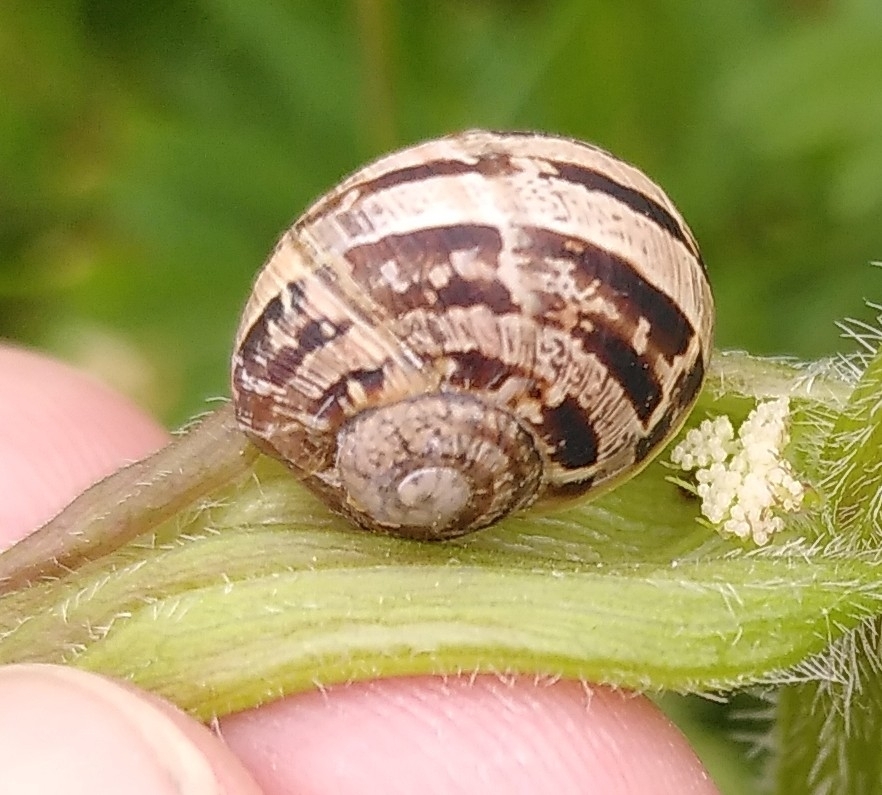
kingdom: Animalia
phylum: Mollusca
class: Gastropoda
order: Stylommatophora
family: Helicidae
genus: Cornu
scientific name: Cornu aspersum
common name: Brown garden snail
